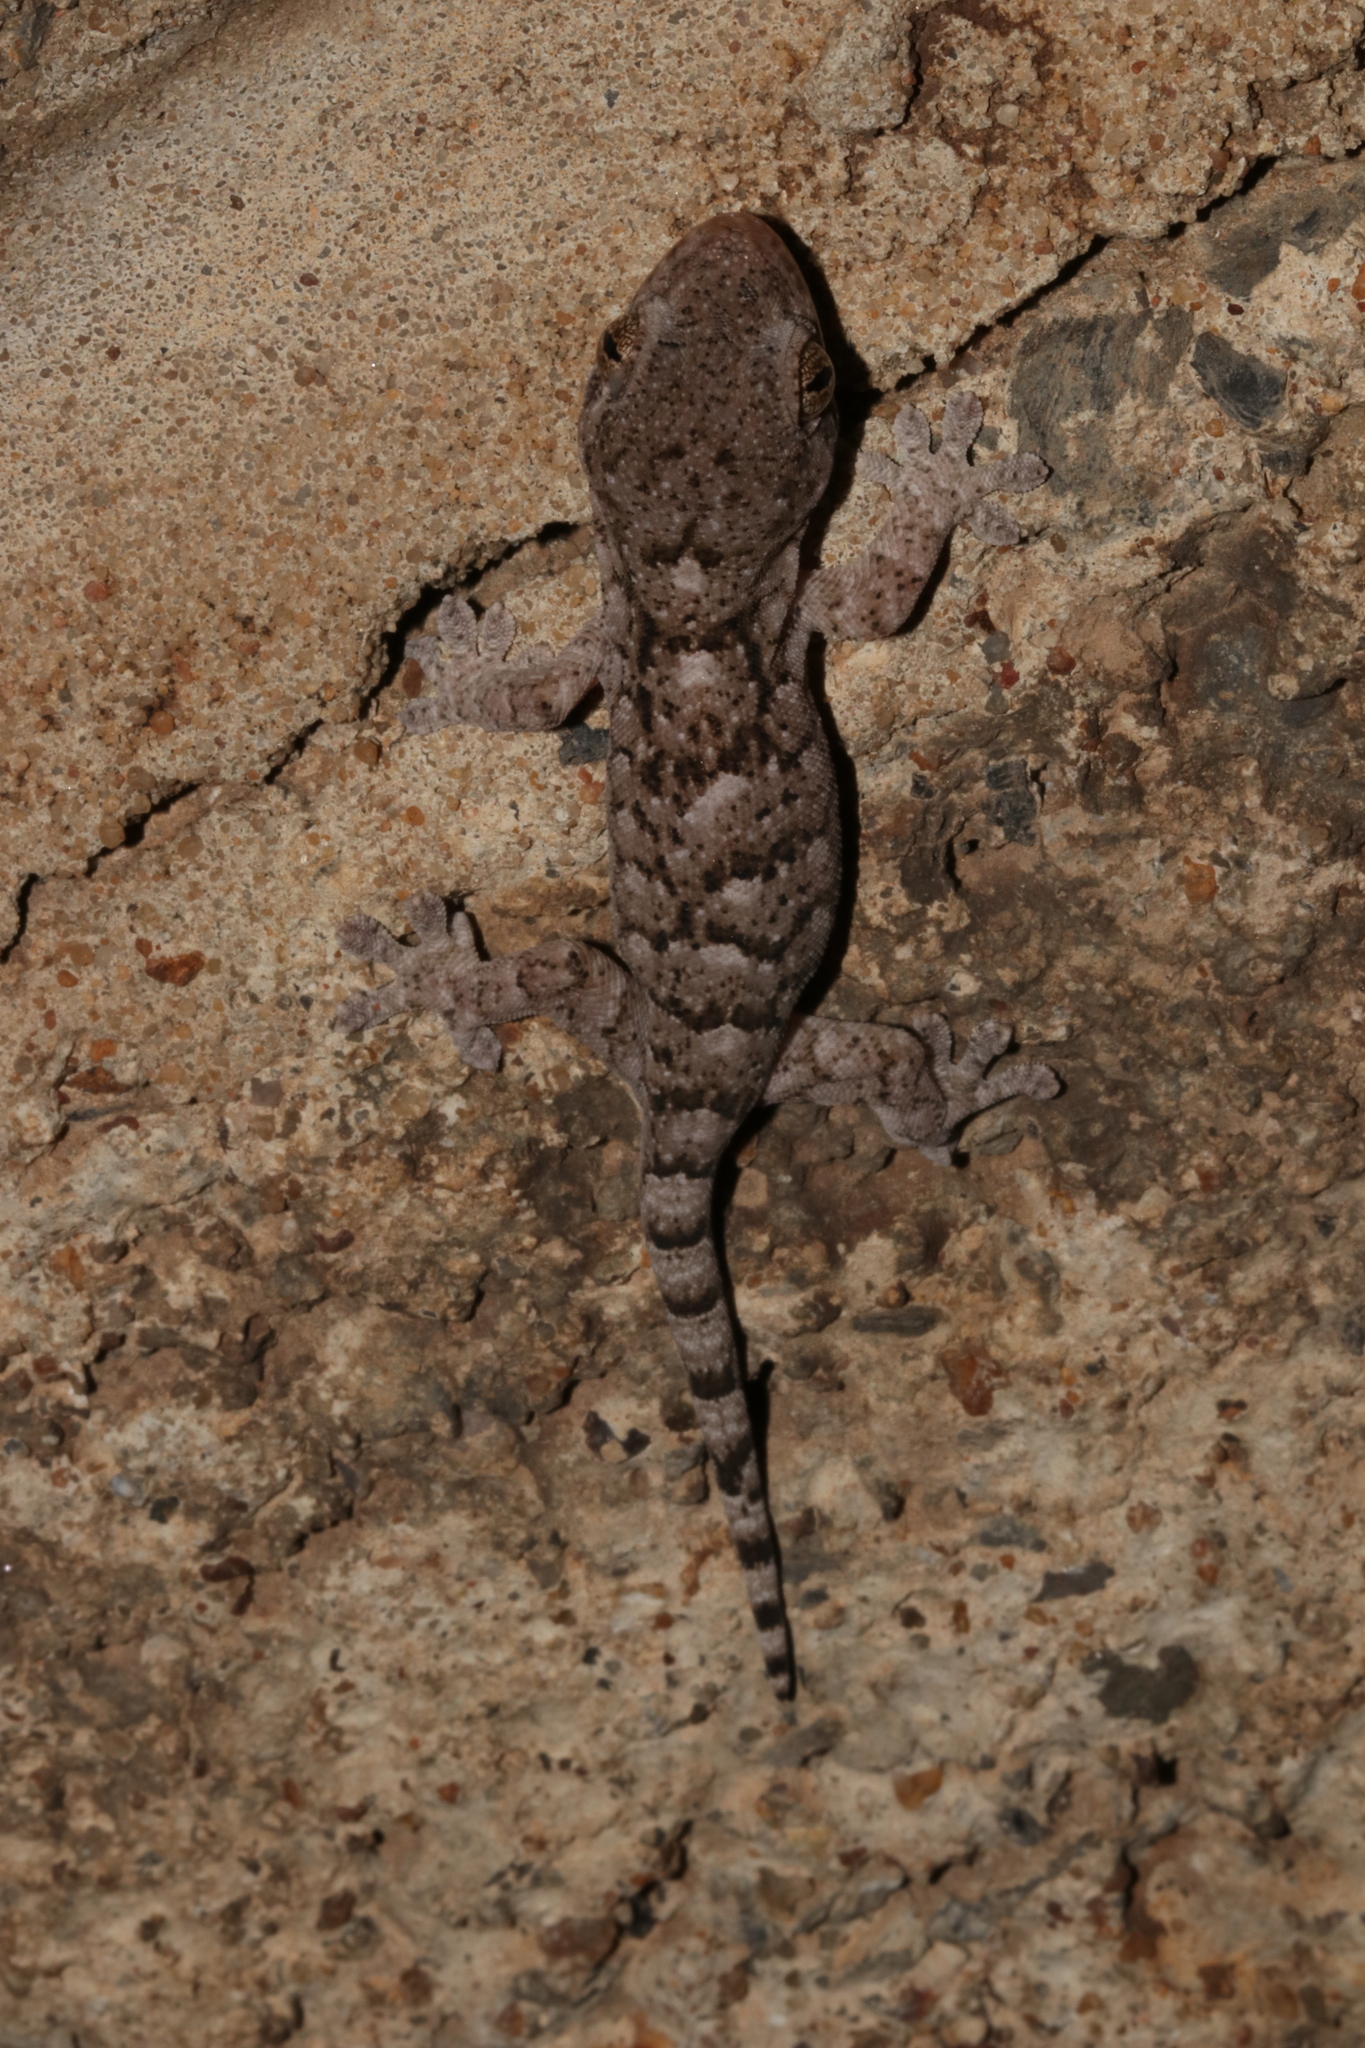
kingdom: Animalia
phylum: Chordata
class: Squamata
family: Gekkonidae
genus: Homopholis
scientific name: Homopholis walbergii
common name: Wahlberg’s velvet gecko
